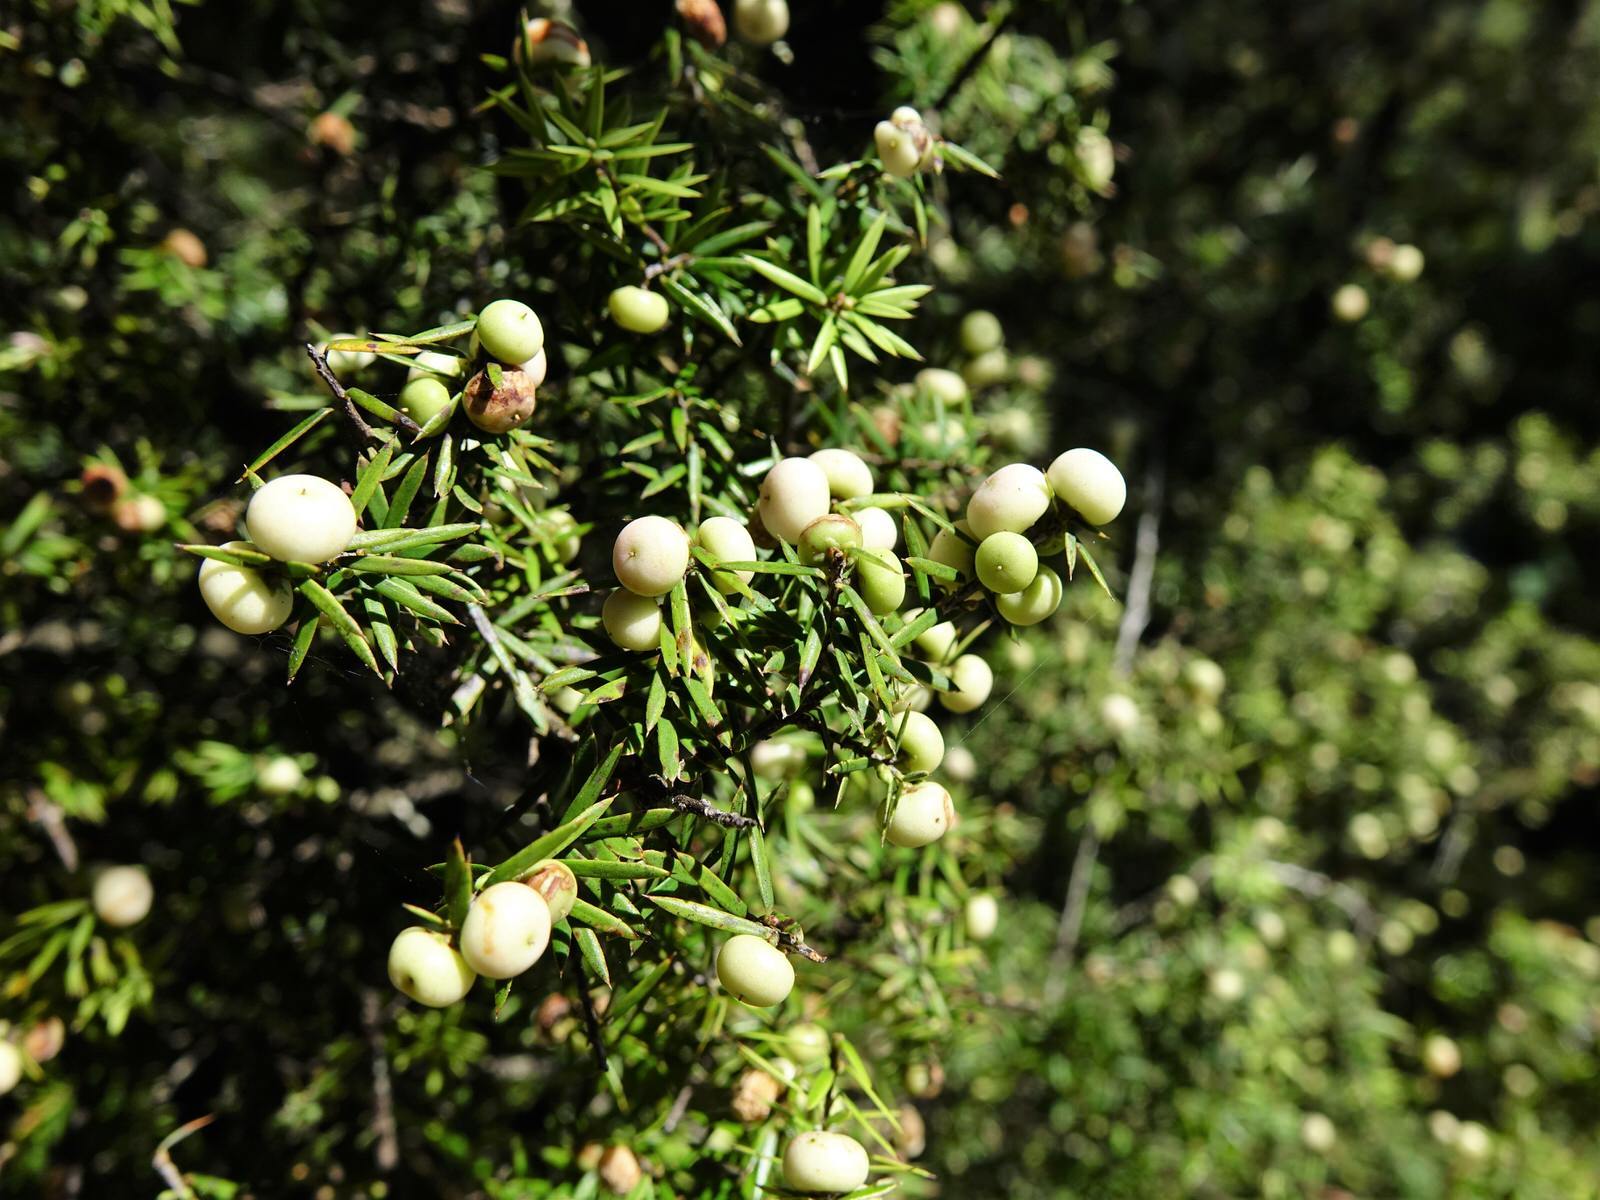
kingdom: Plantae
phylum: Tracheophyta
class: Magnoliopsida
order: Ericales
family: Ericaceae
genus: Leptecophylla
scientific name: Leptecophylla juniperina
